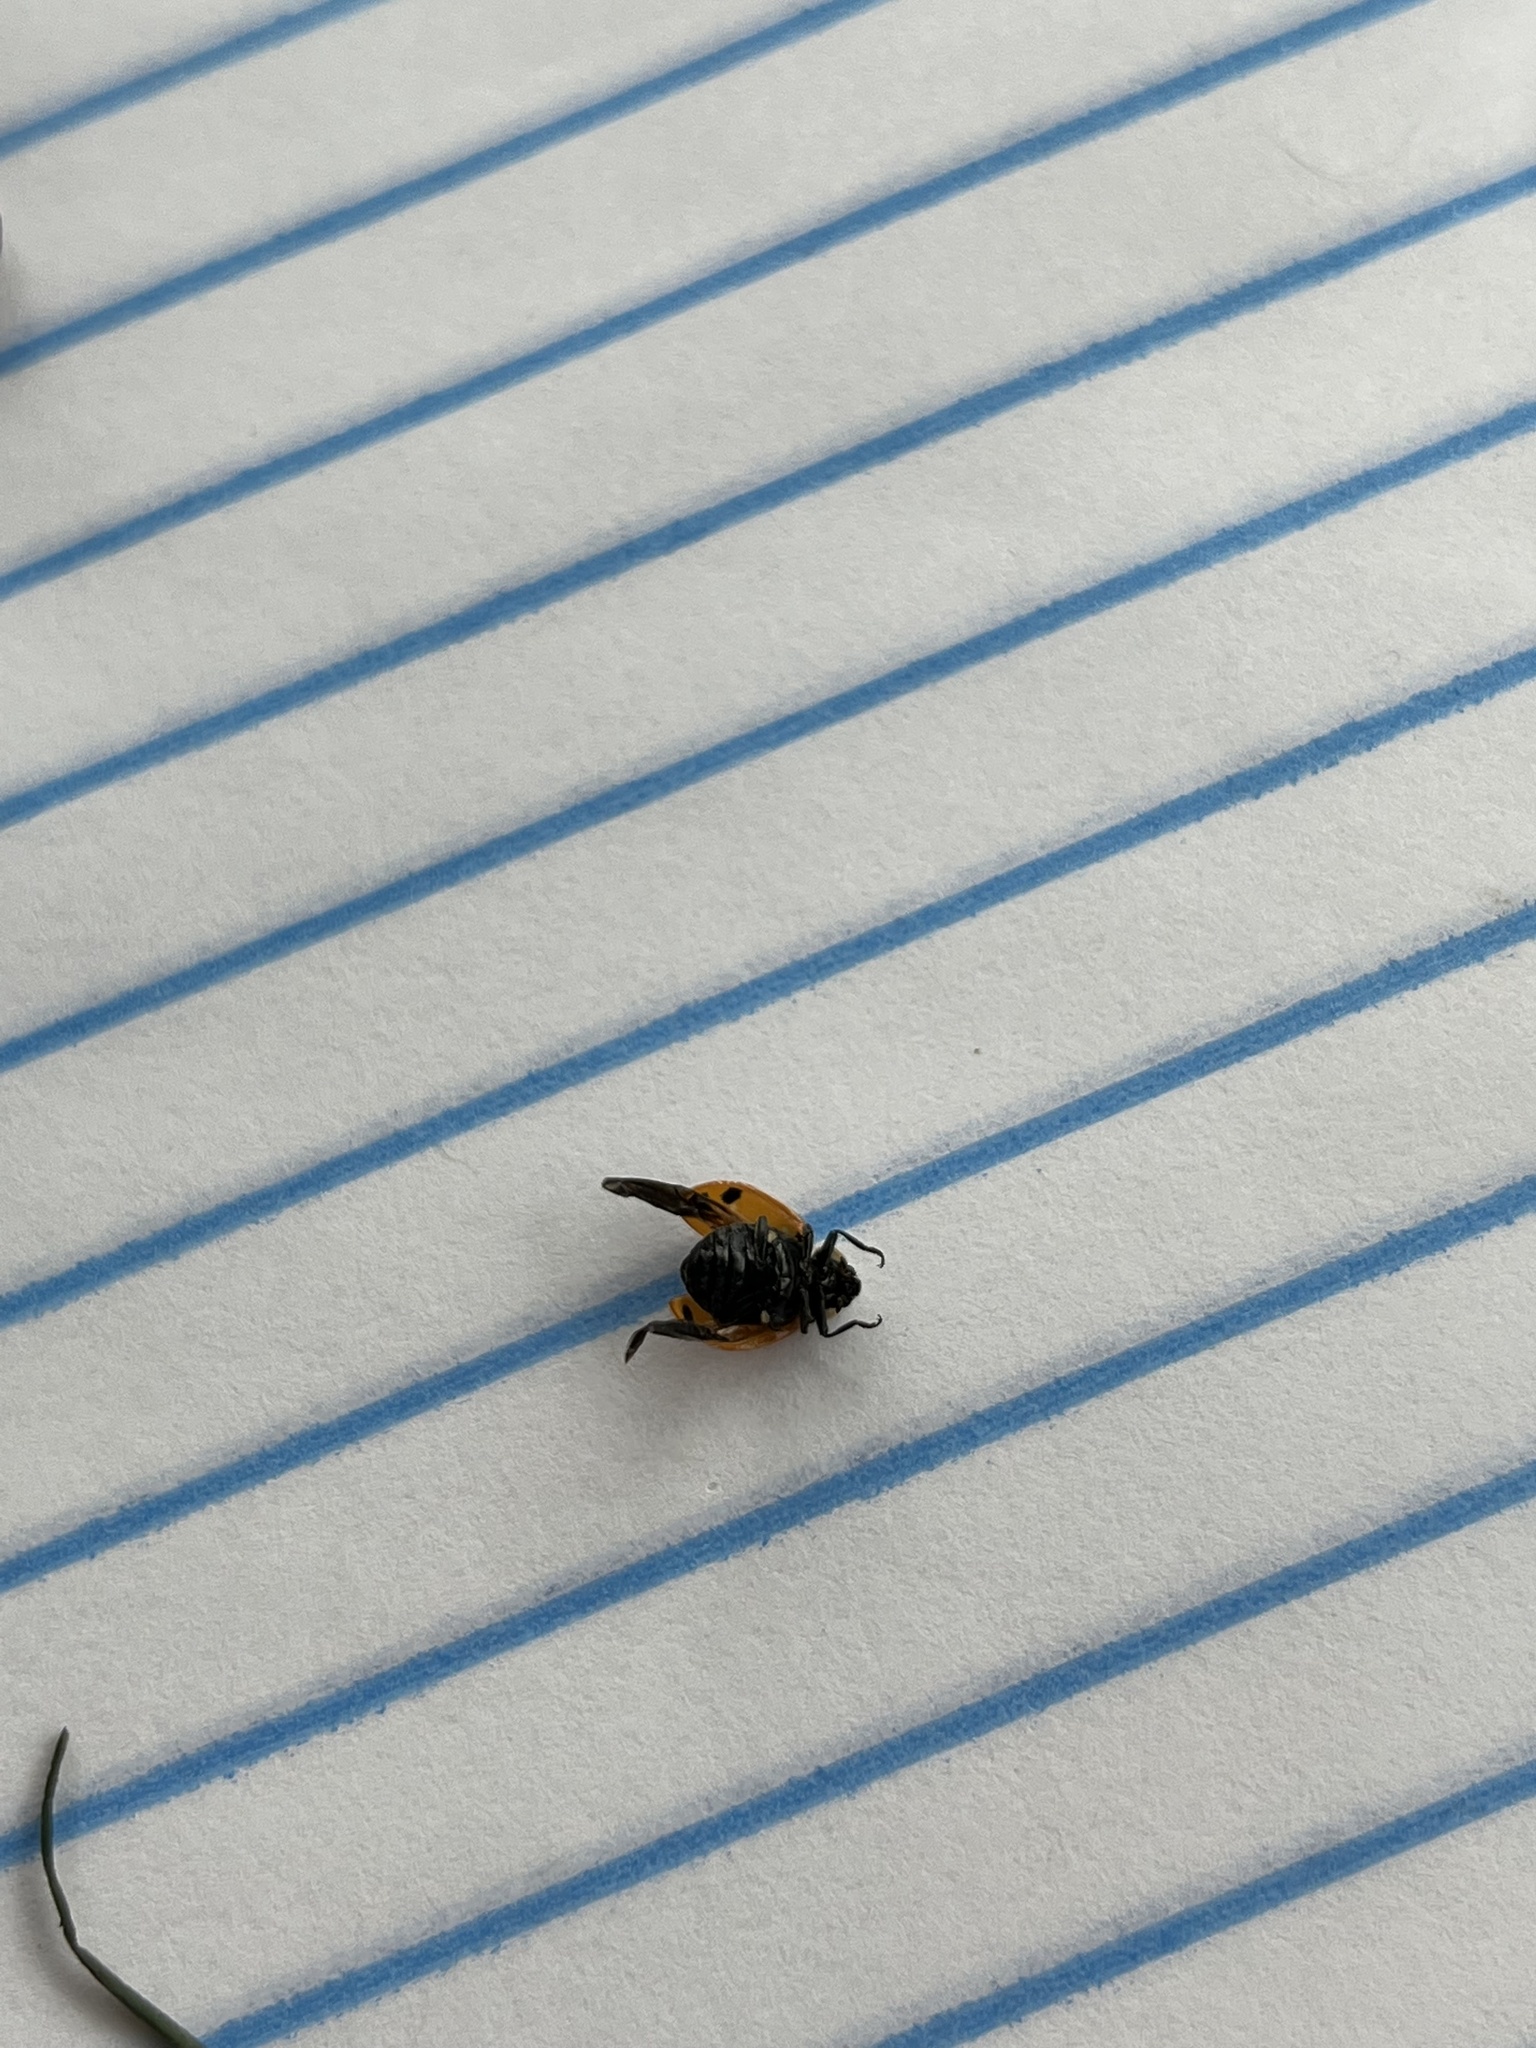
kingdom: Animalia
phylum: Arthropoda
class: Insecta
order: Coleoptera
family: Coccinellidae
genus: Hippodamia
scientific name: Hippodamia convergens
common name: Convergent lady beetle
